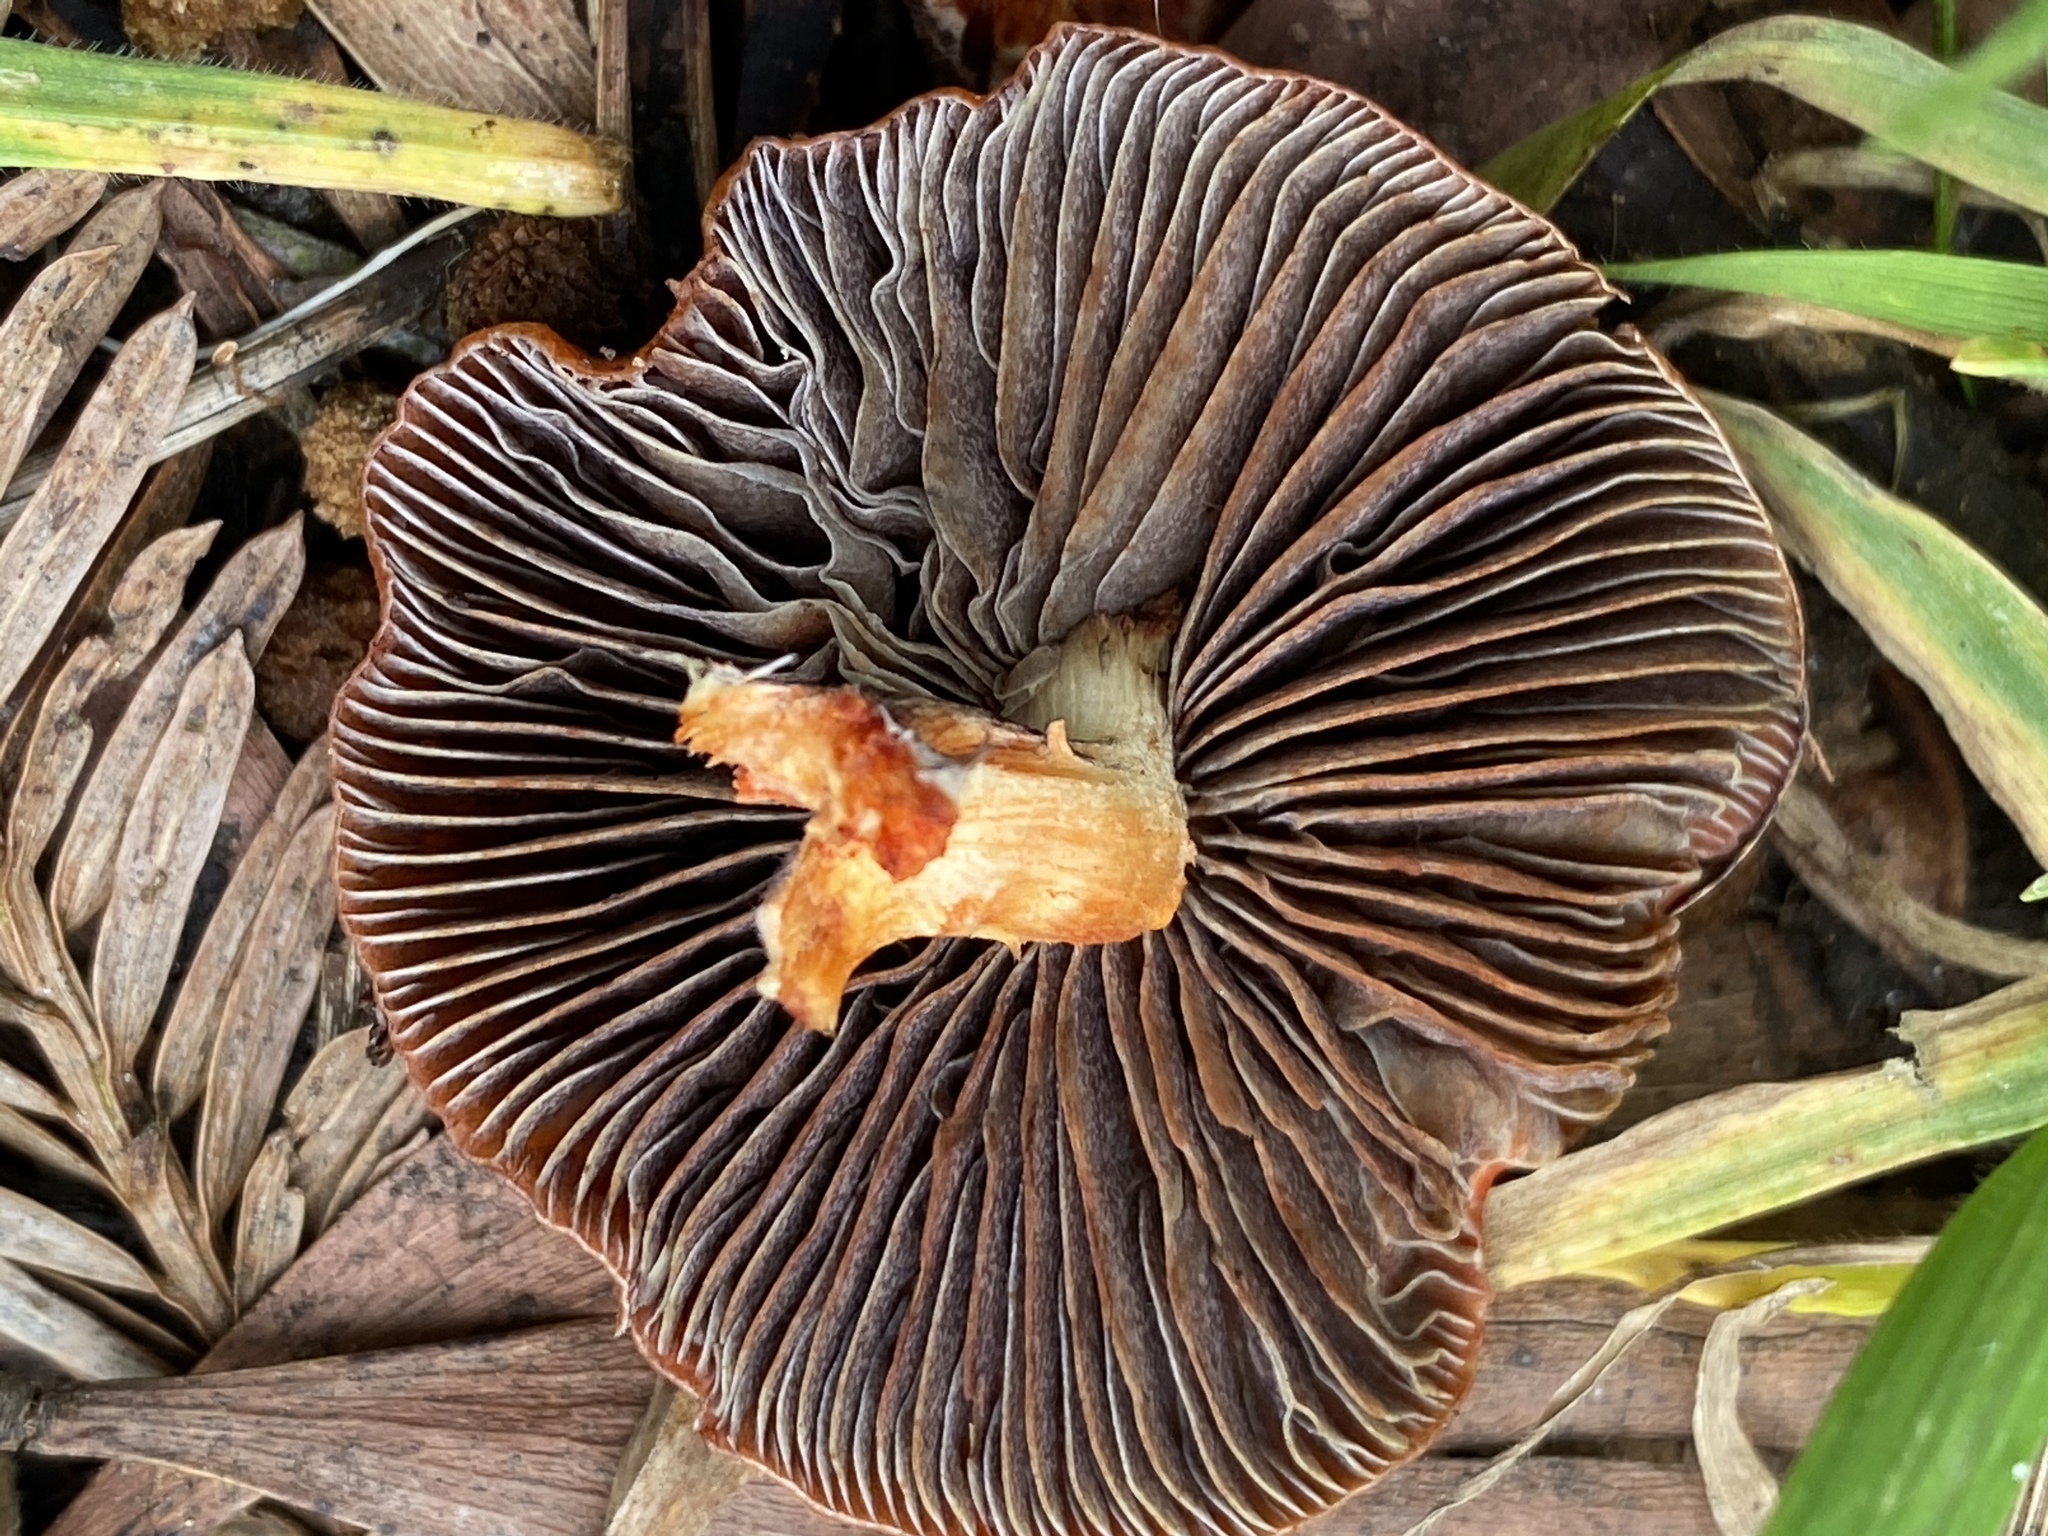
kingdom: Fungi
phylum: Basidiomycota
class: Agaricomycetes
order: Agaricales
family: Strophariaceae
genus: Leratiomyces
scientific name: Leratiomyces ceres
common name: Redlead roundhead
